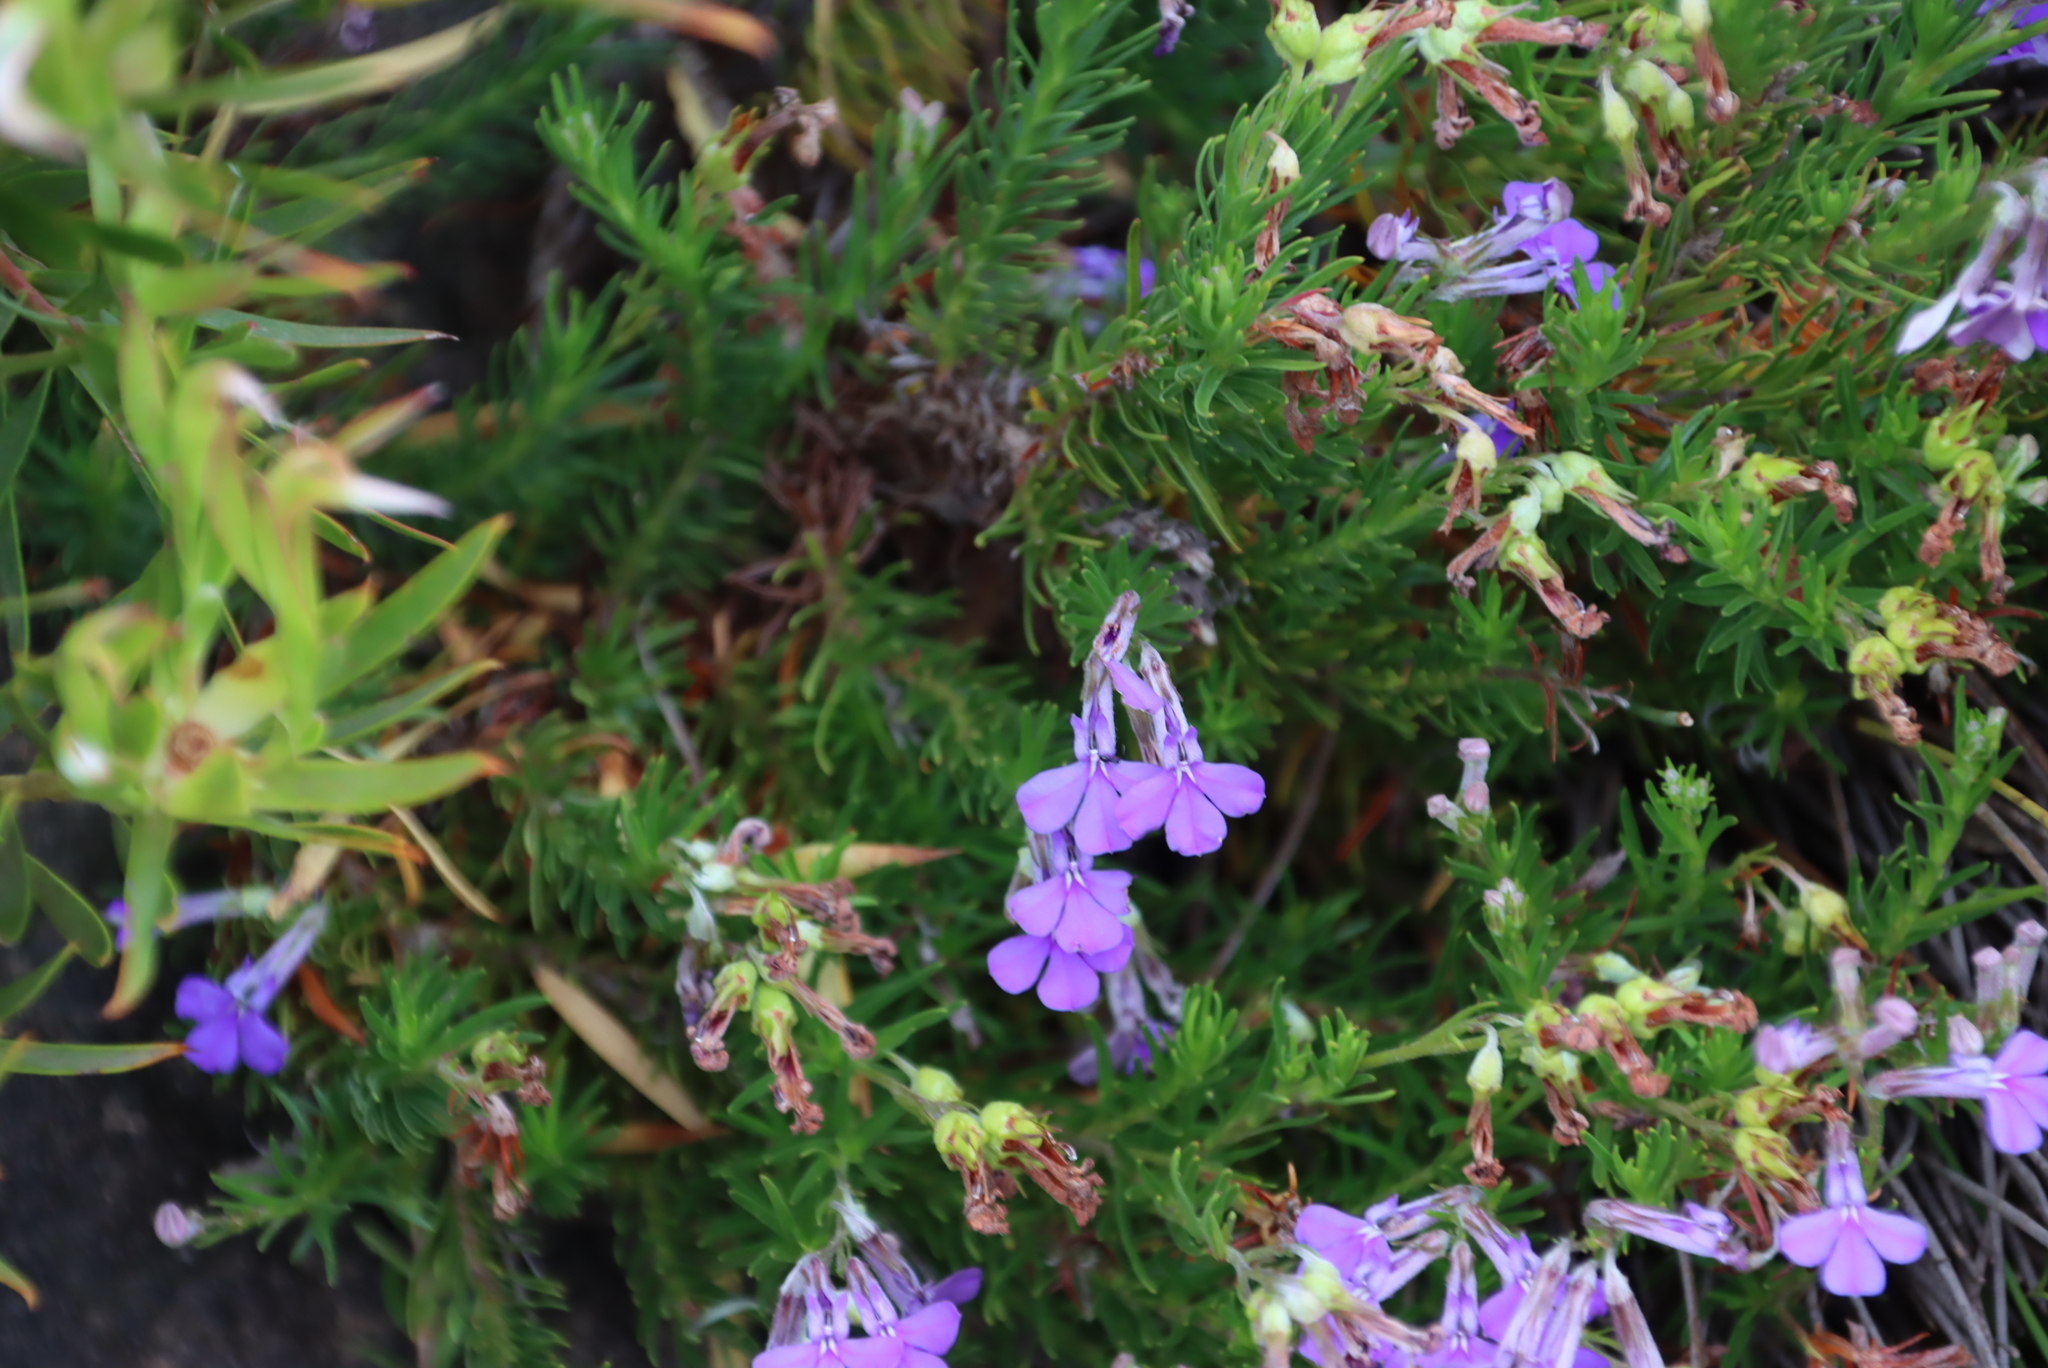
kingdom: Plantae
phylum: Tracheophyta
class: Magnoliopsida
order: Asterales
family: Campanulaceae
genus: Lobelia
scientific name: Lobelia pinifolia
